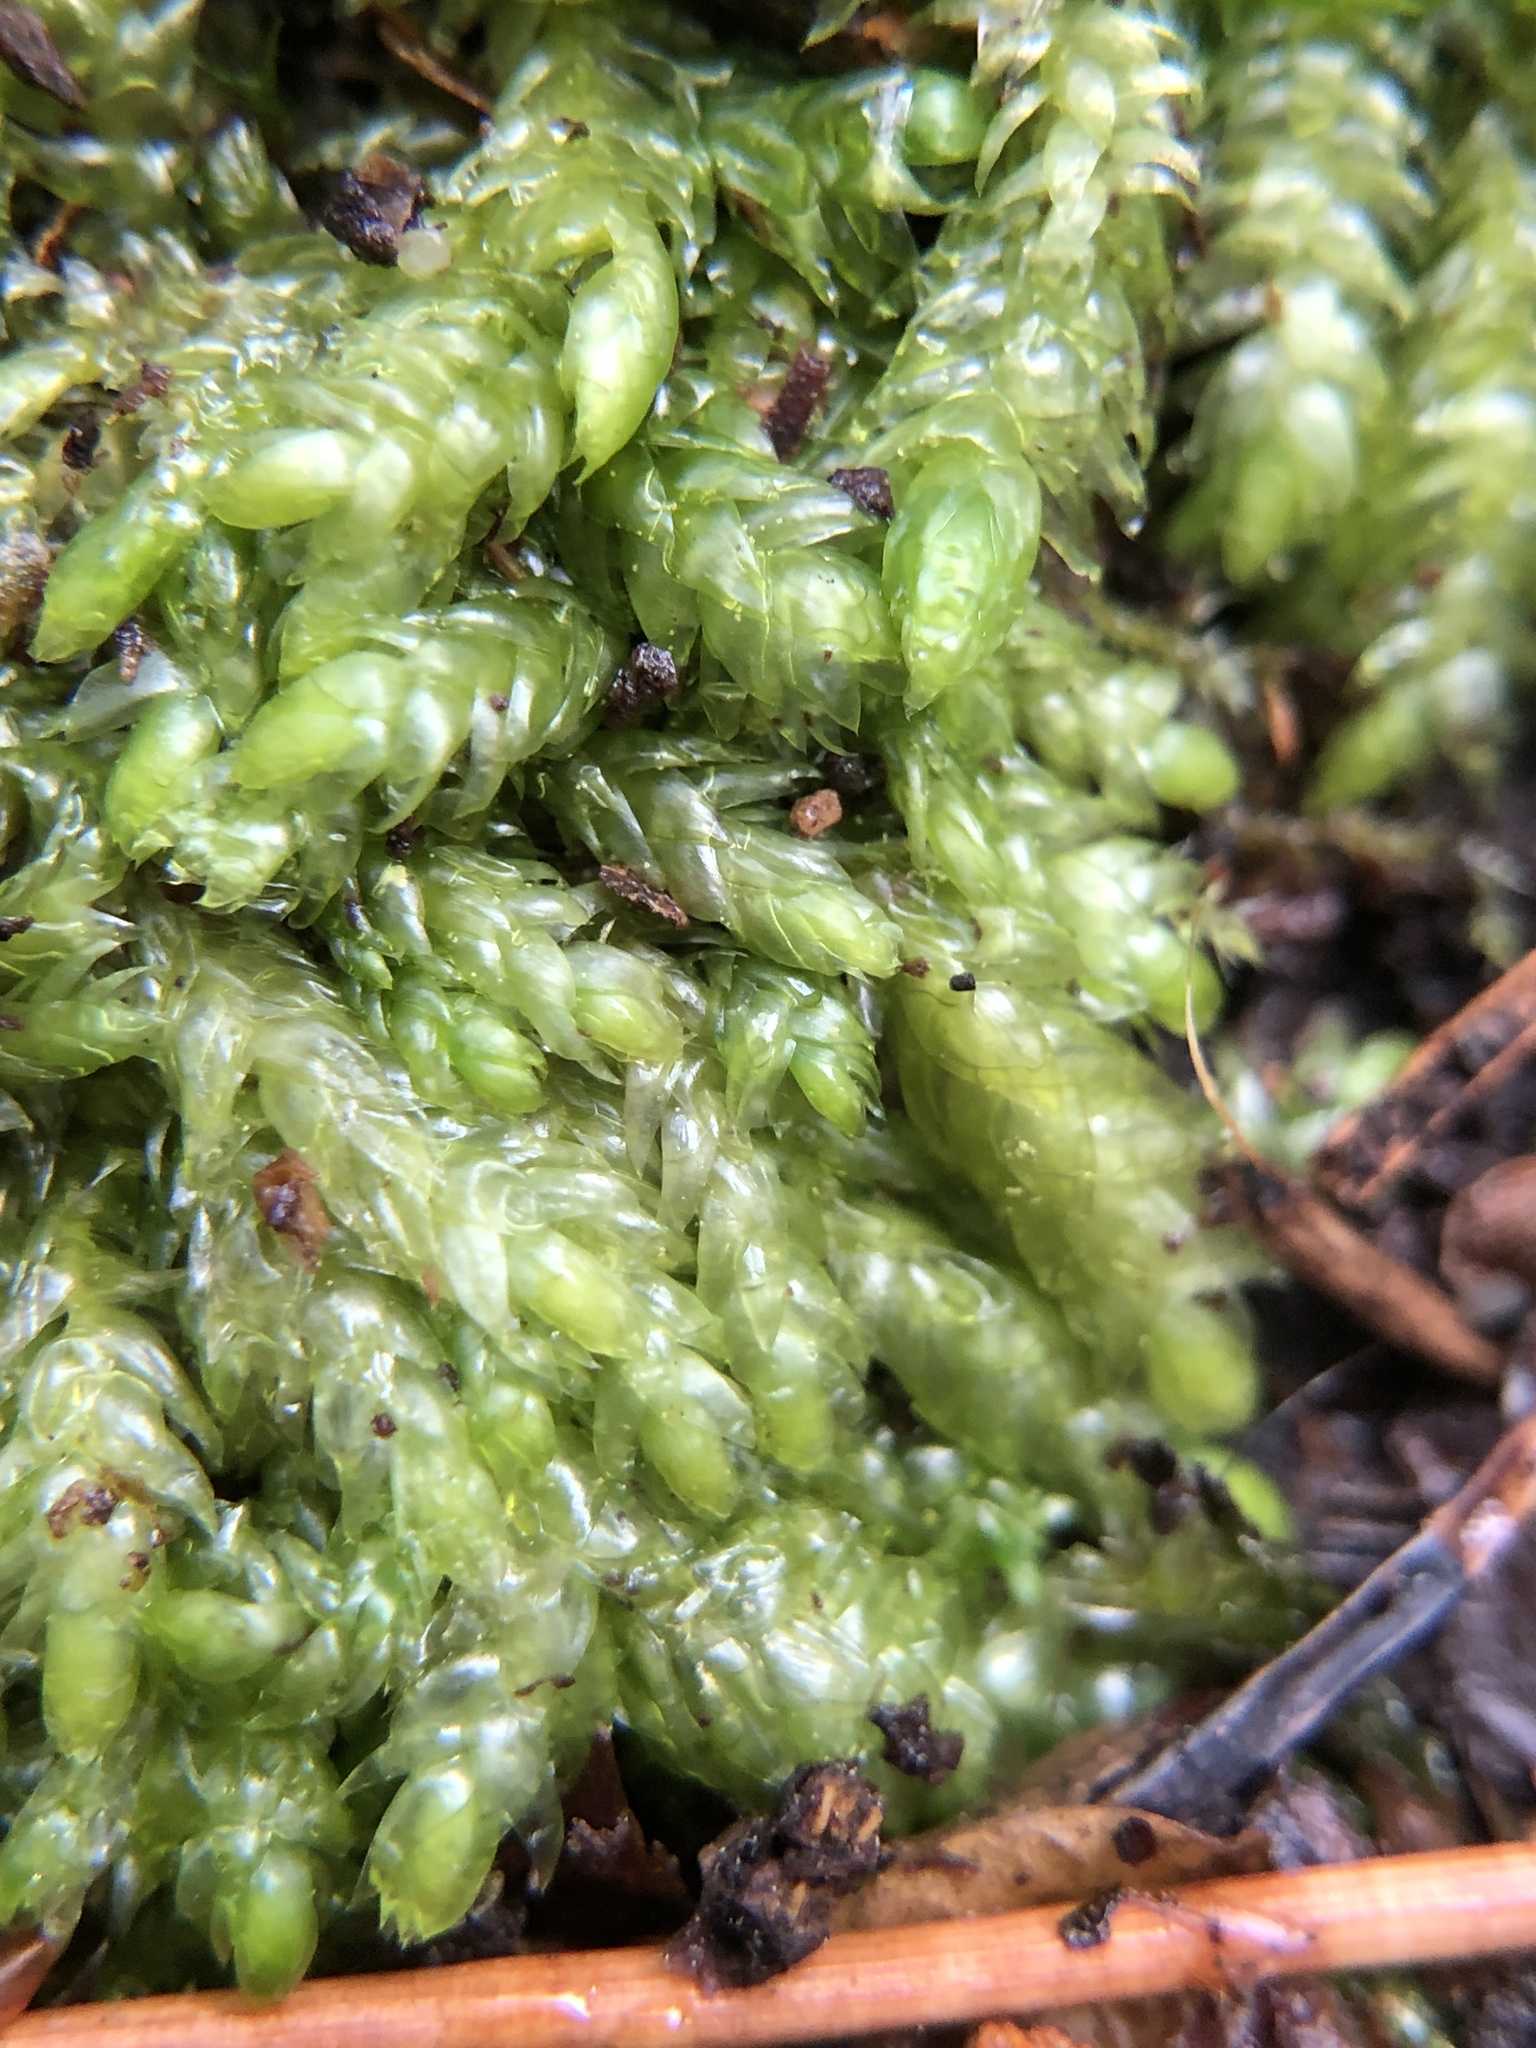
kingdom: Plantae
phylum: Bryophyta
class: Bryopsida
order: Hypnales
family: Plagiotheciaceae
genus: Plagiothecium
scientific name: Plagiothecium curvifolium
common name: Curved silk-moss
